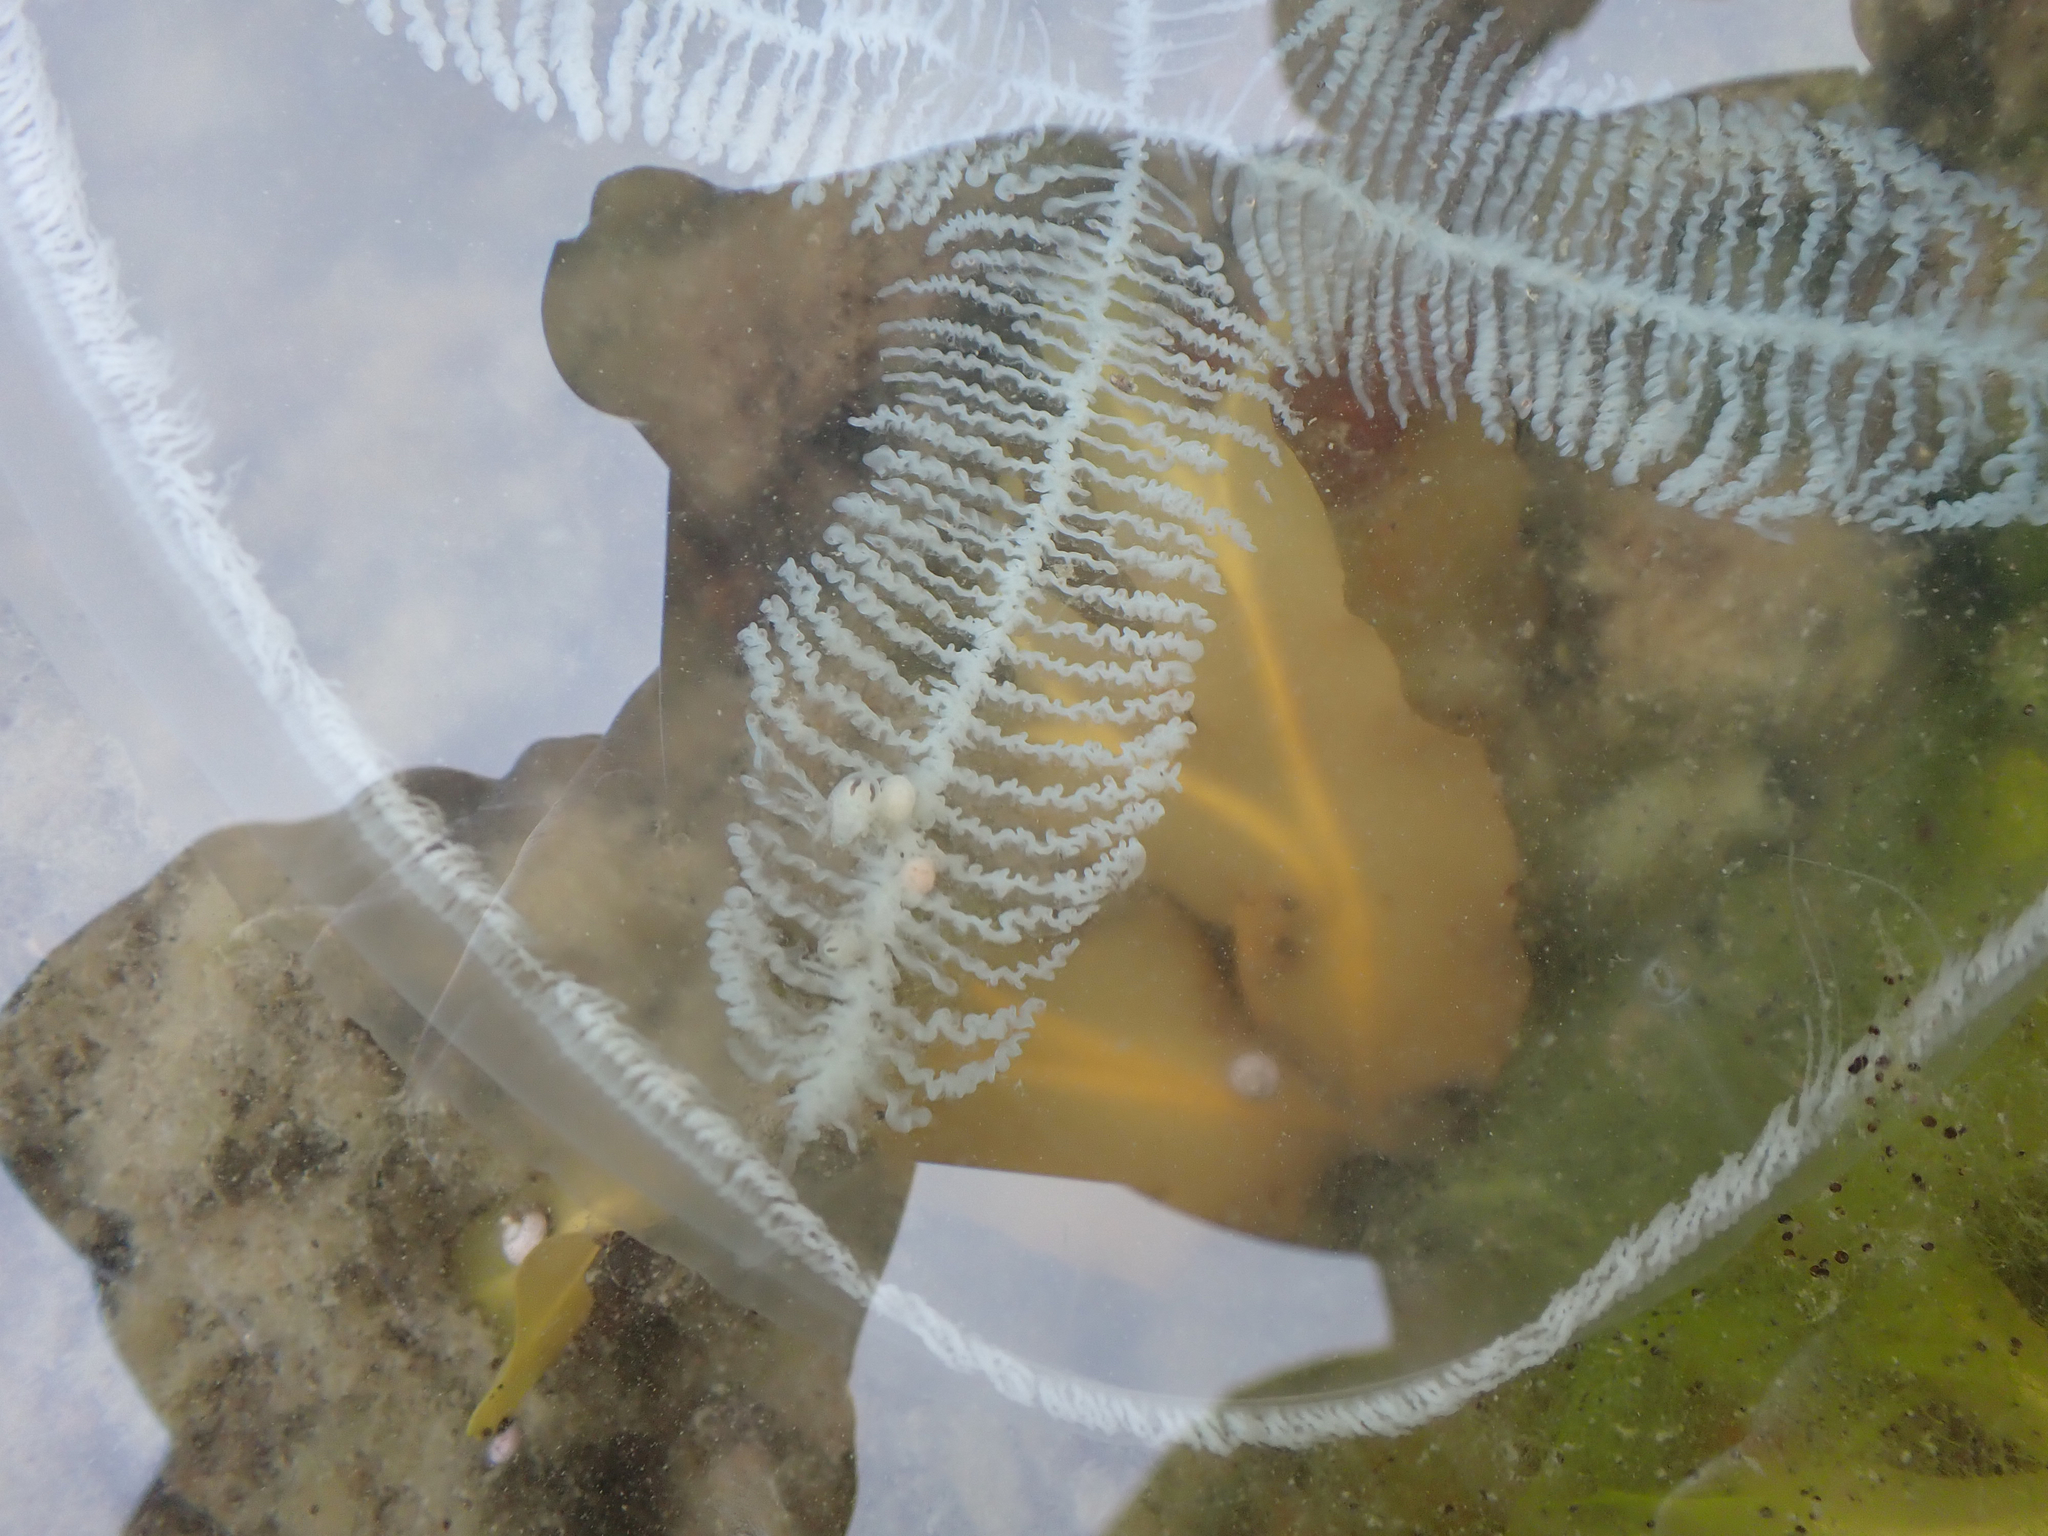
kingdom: Animalia
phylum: Cnidaria
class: Hydrozoa
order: Leptothecata
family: Laodiceidae
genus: Staurostoma
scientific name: Staurostoma mertensii
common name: Whitecross jellyfish
